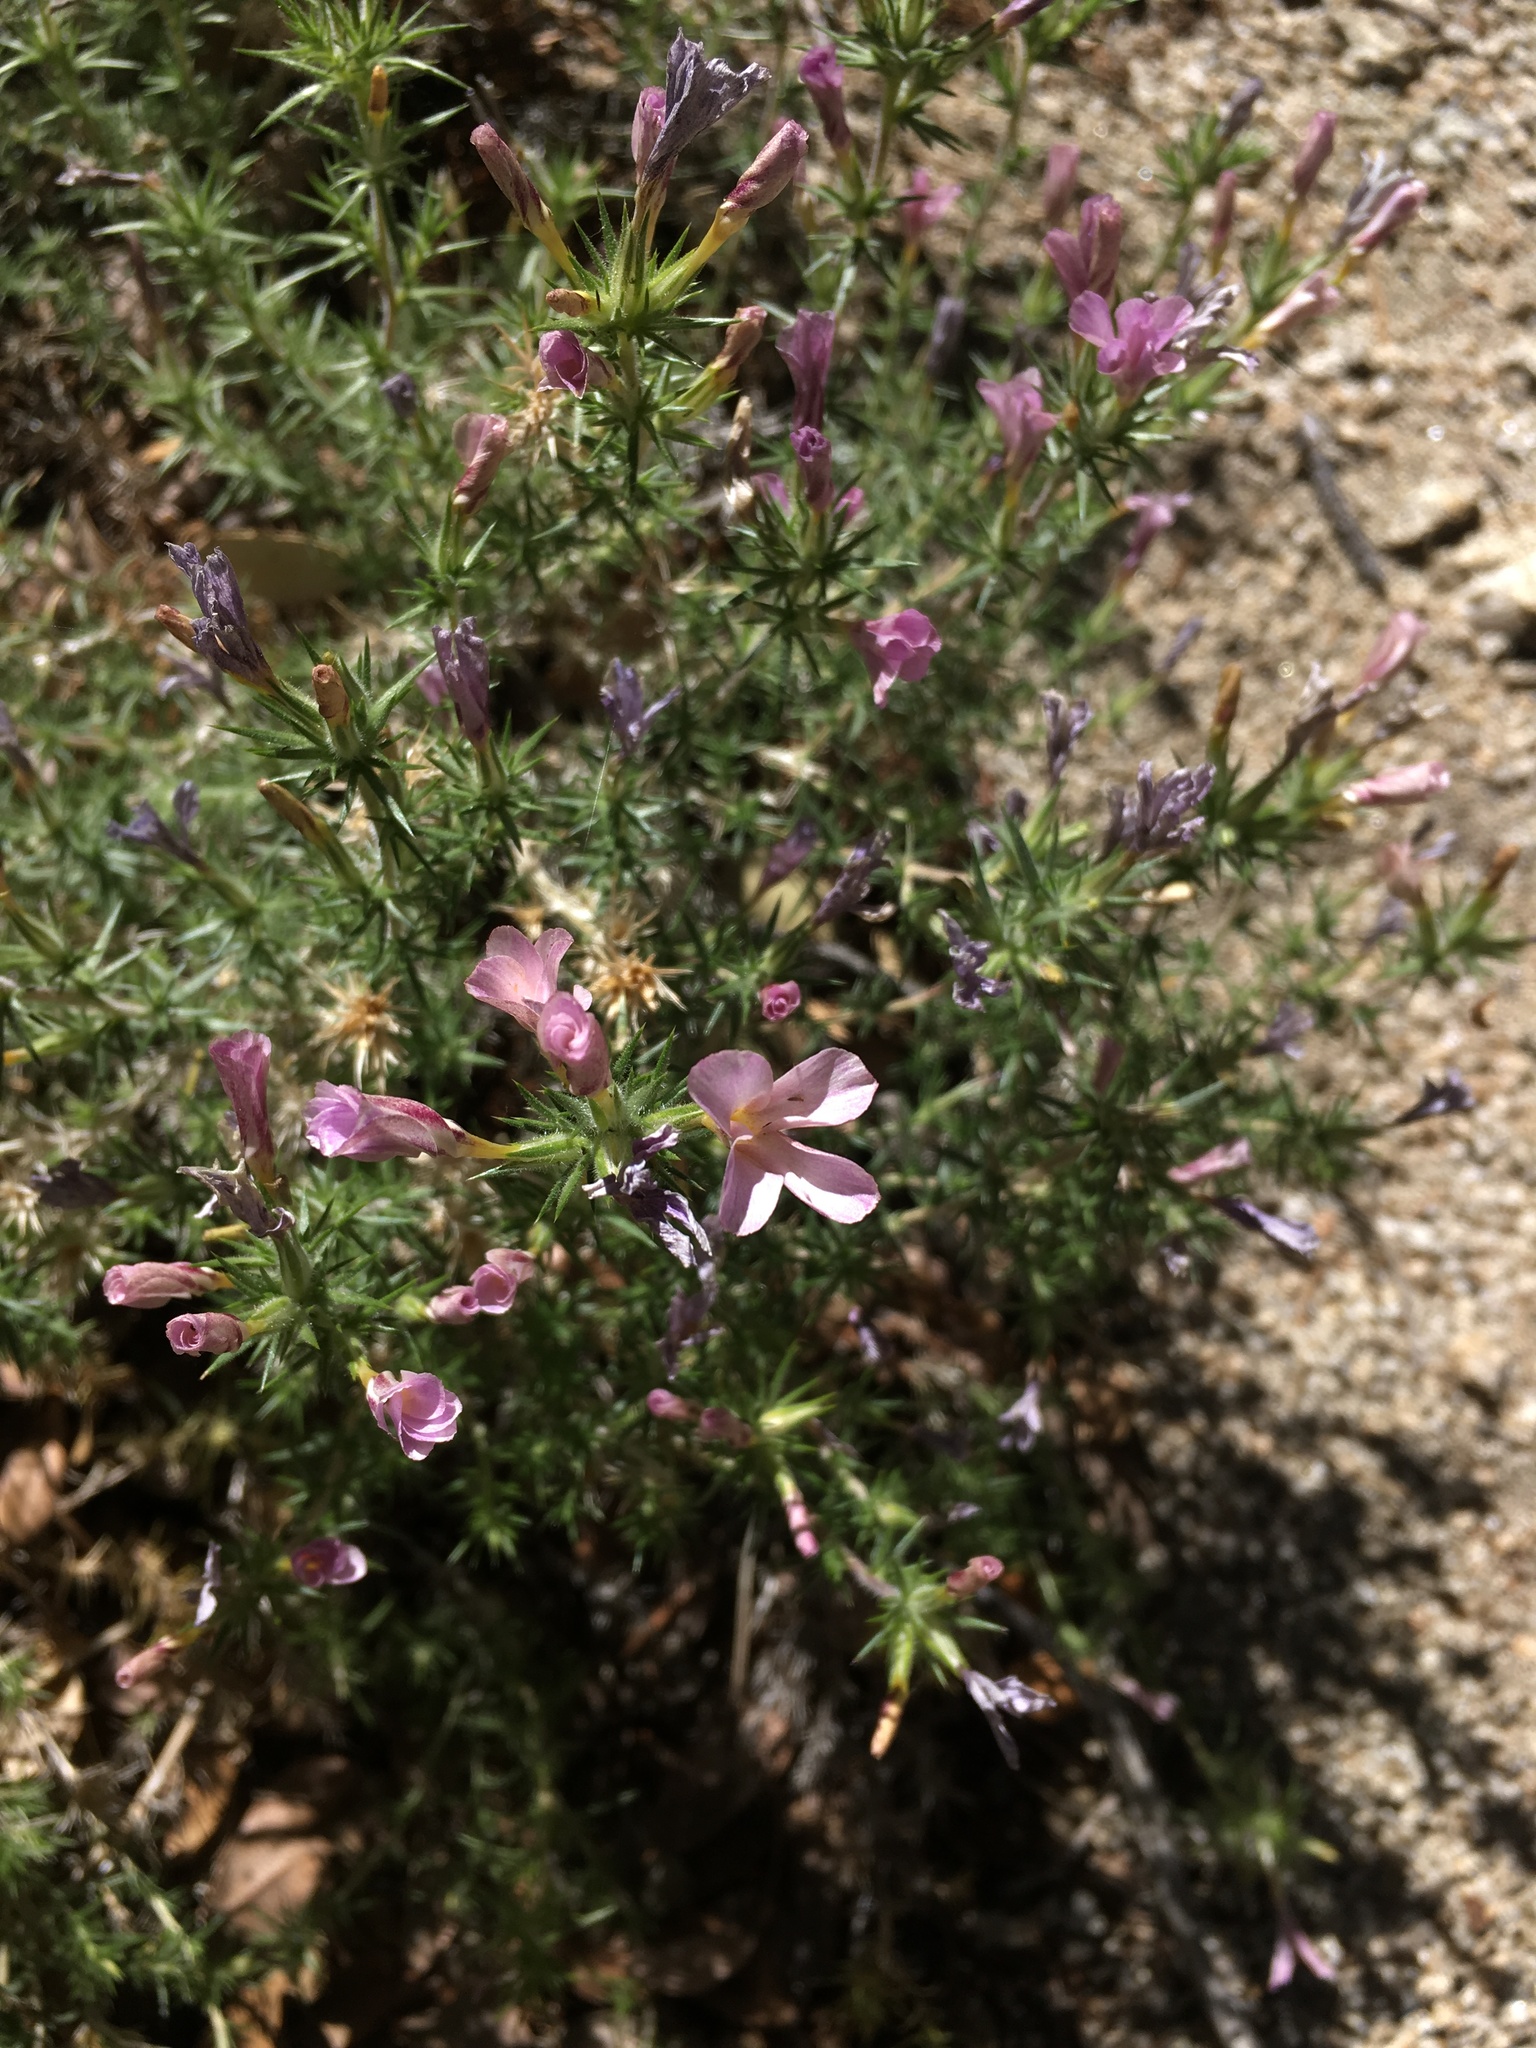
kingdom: Plantae
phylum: Tracheophyta
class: Magnoliopsida
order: Ericales
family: Polemoniaceae
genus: Linanthus
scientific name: Linanthus pungens
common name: Granite prickly phlox
